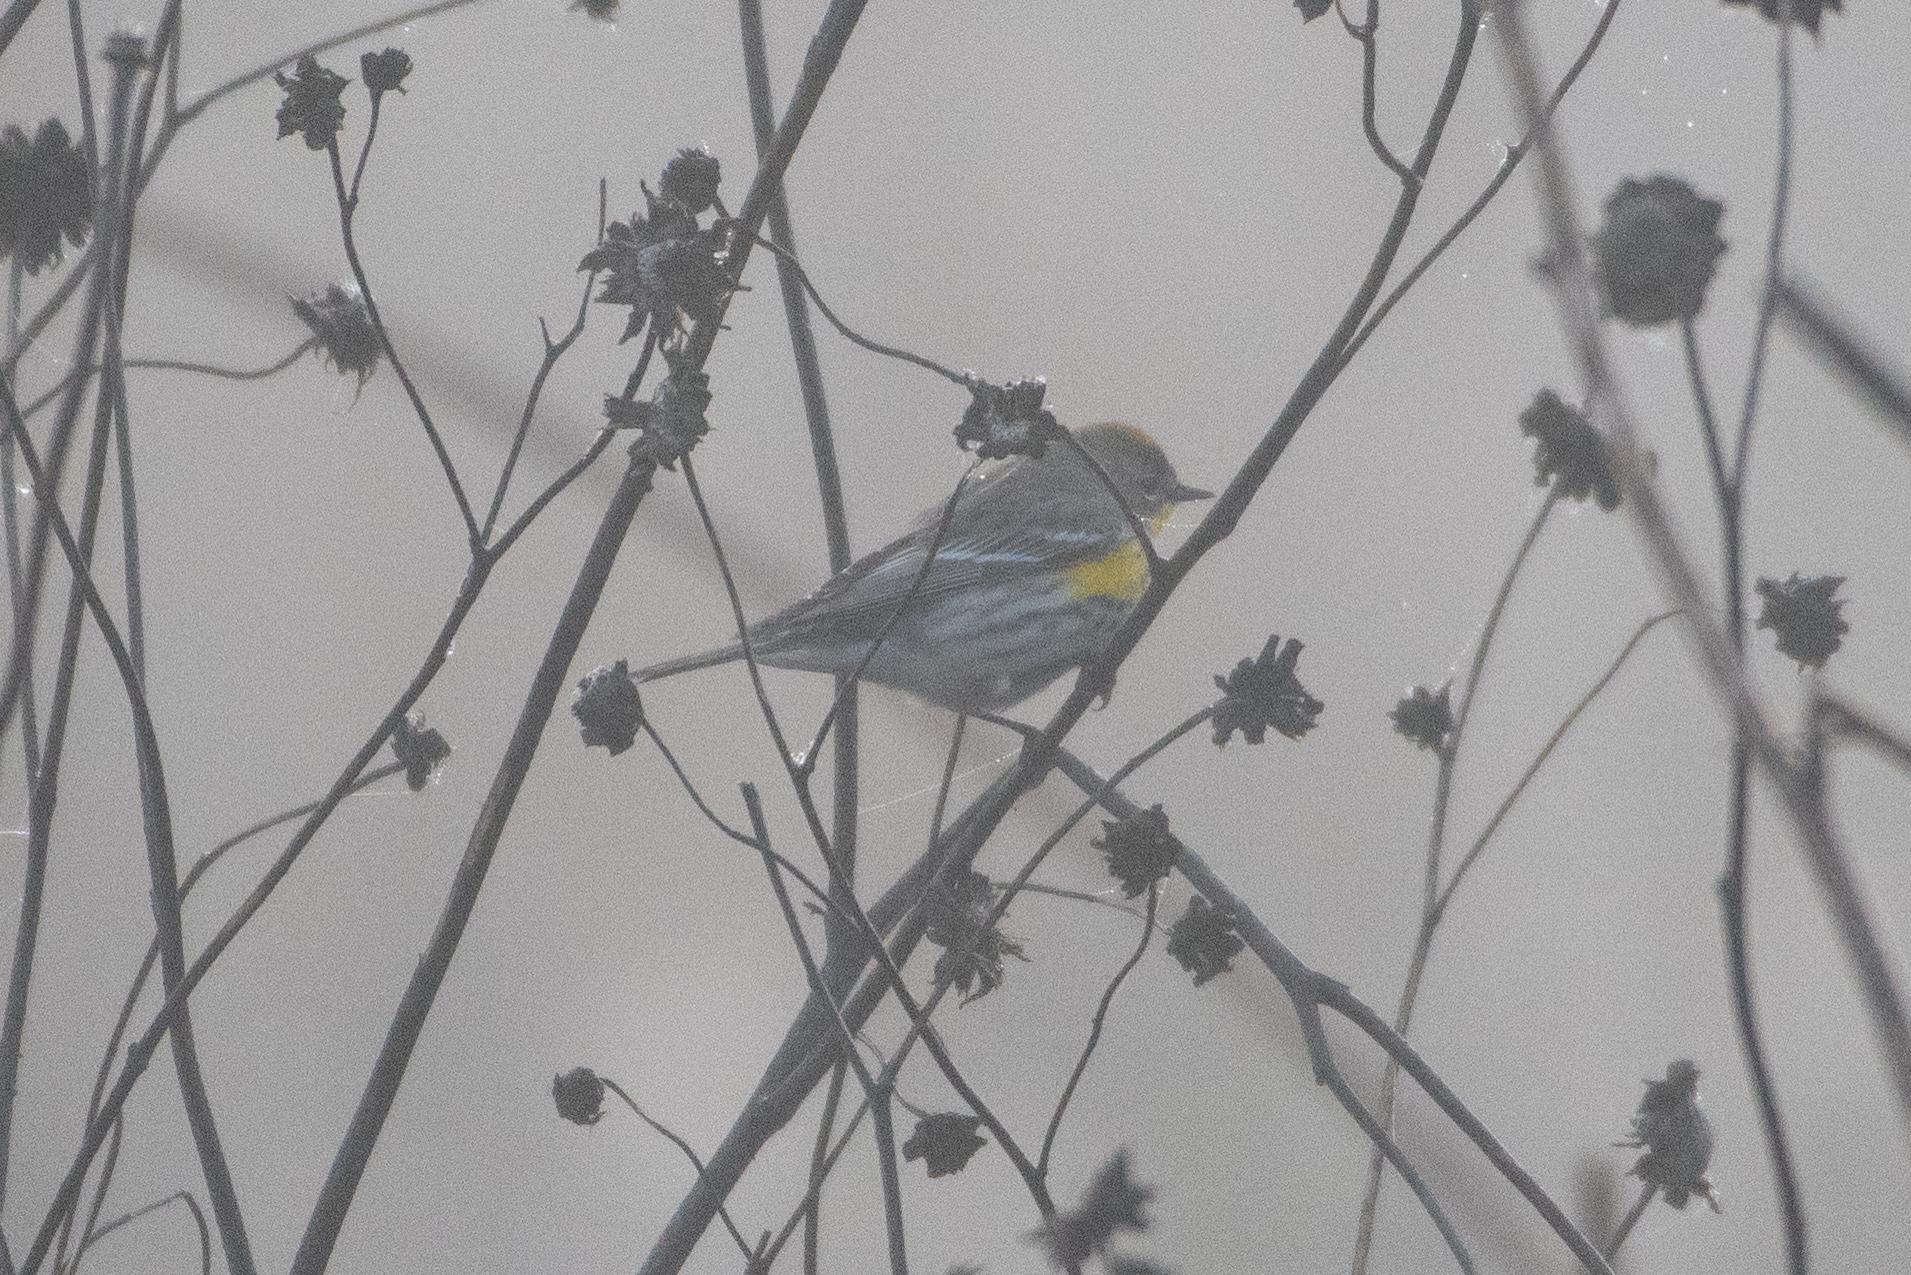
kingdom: Animalia
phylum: Chordata
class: Aves
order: Passeriformes
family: Parulidae
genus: Setophaga
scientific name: Setophaga coronata
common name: Myrtle warbler
